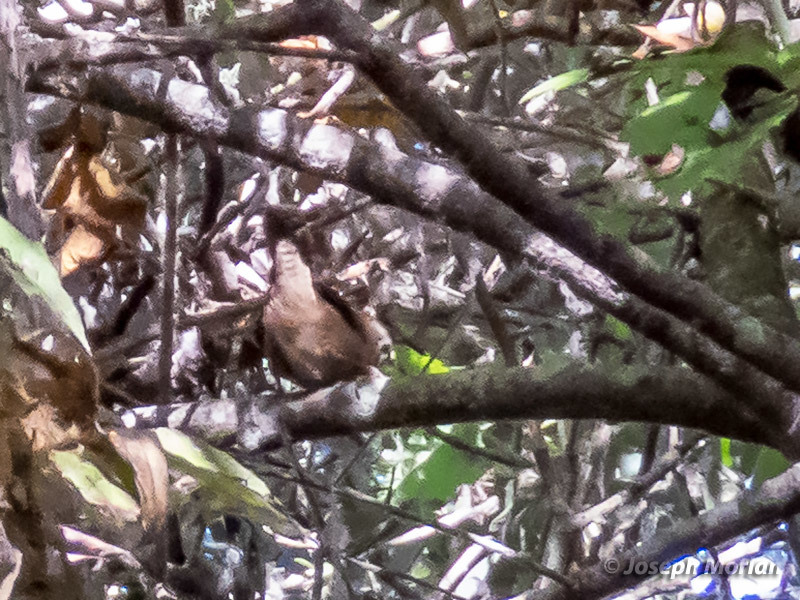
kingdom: Animalia
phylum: Chordata
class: Aves
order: Passeriformes
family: Troglodytidae
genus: Cistothorus
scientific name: Cistothorus palustris
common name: Marsh wren
